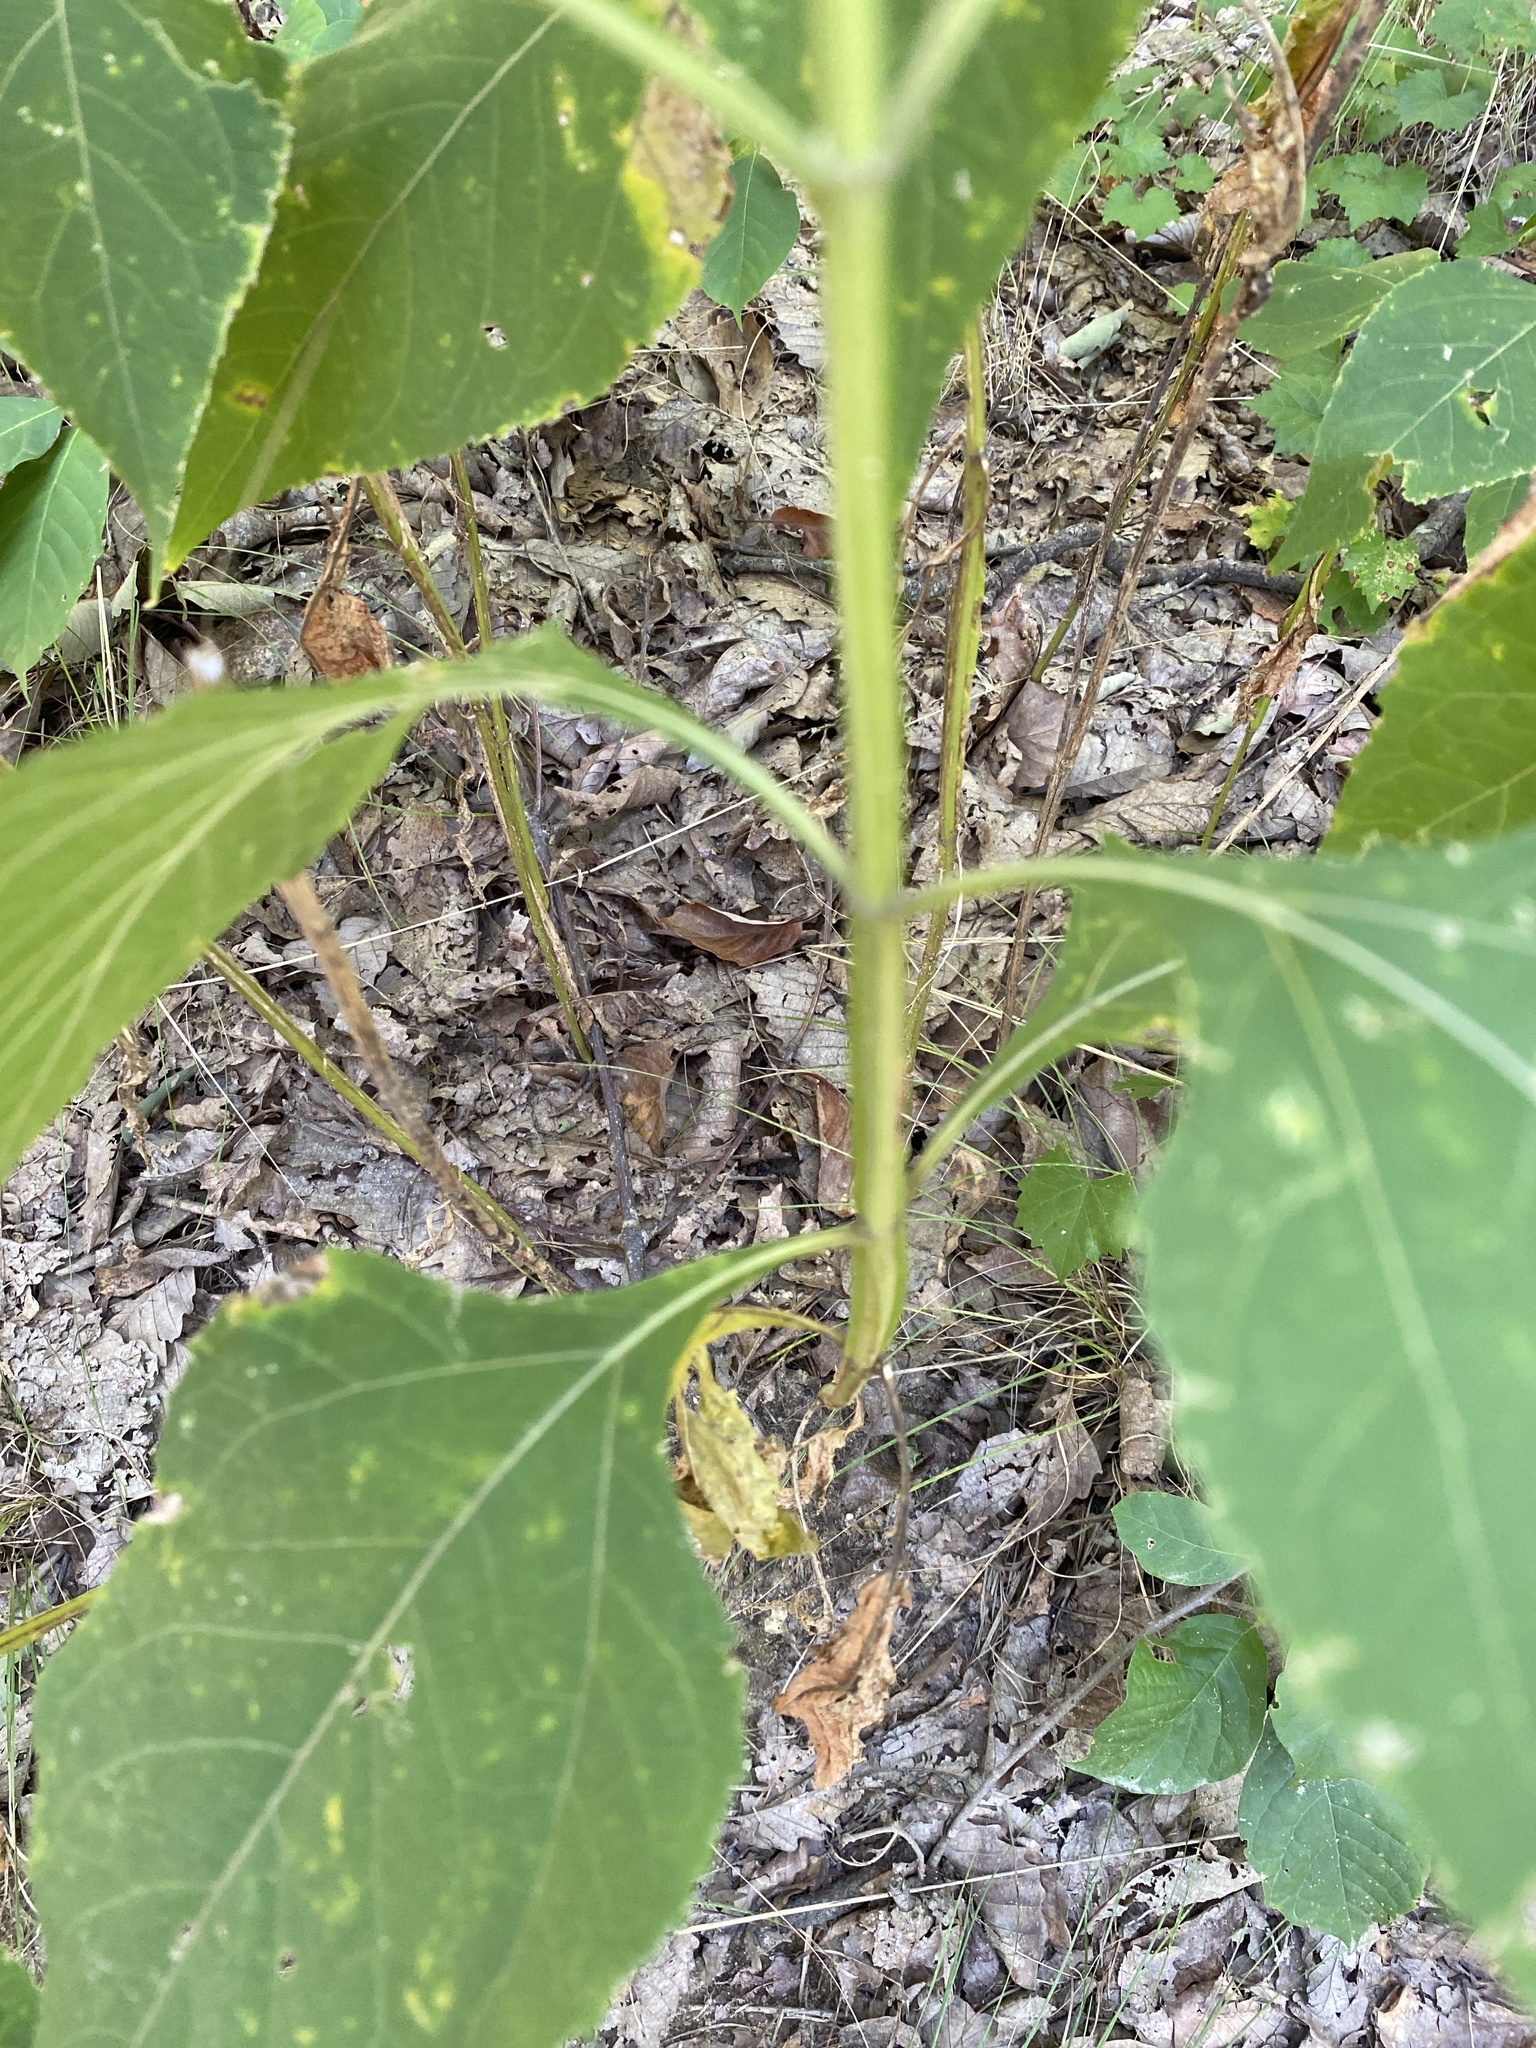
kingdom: Plantae
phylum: Tracheophyta
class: Magnoliopsida
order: Asterales
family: Asteraceae
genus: Verbesina
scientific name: Verbesina occidentalis
